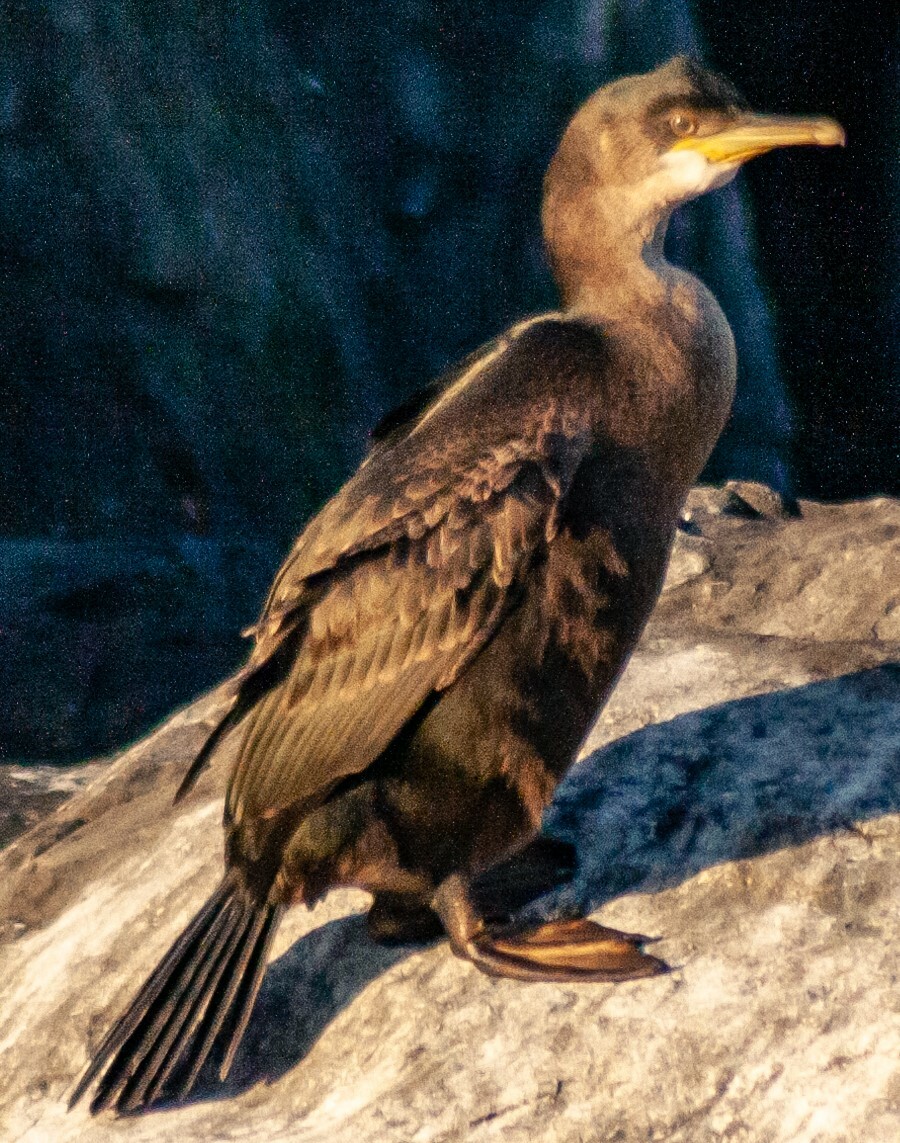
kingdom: Animalia
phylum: Chordata
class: Aves
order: Suliformes
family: Phalacrocoracidae
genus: Phalacrocorax
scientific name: Phalacrocorax carbo
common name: Great cormorant
